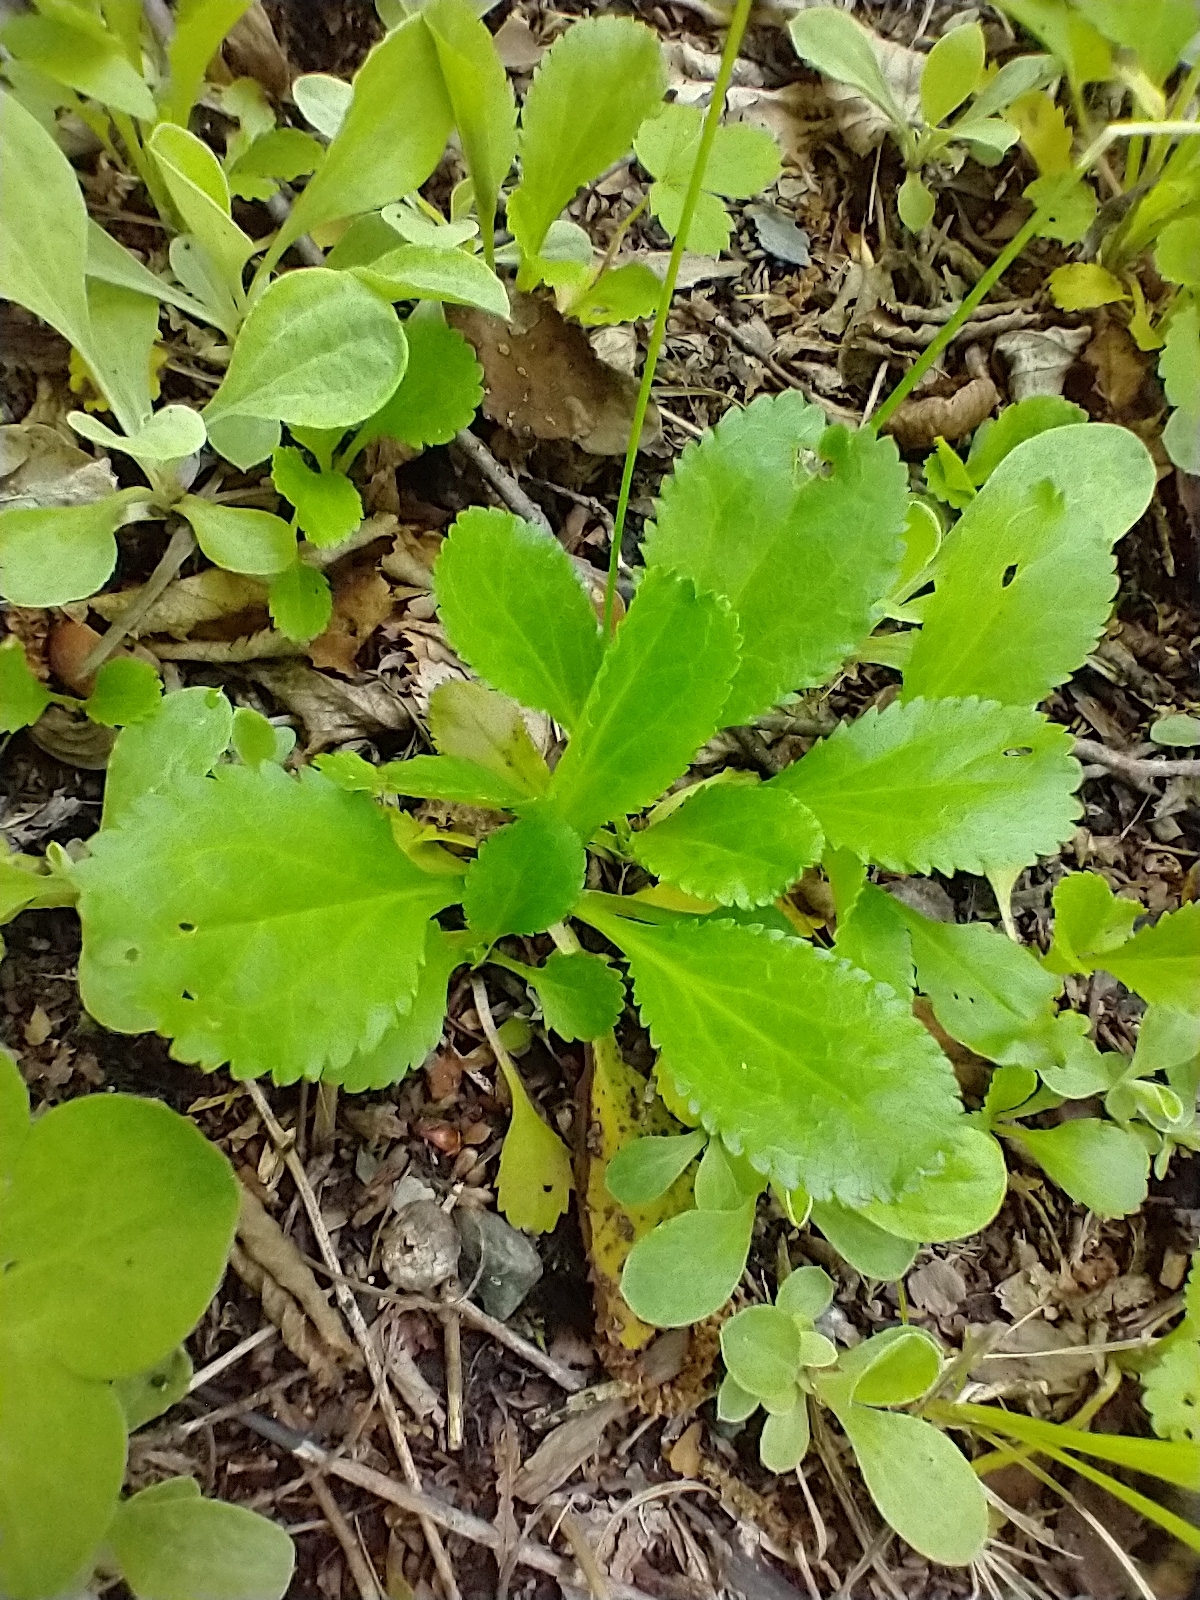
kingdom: Plantae
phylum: Tracheophyta
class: Magnoliopsida
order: Asterales
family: Asteraceae
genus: Packera
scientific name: Packera obovata
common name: Round-leaf ragwort
